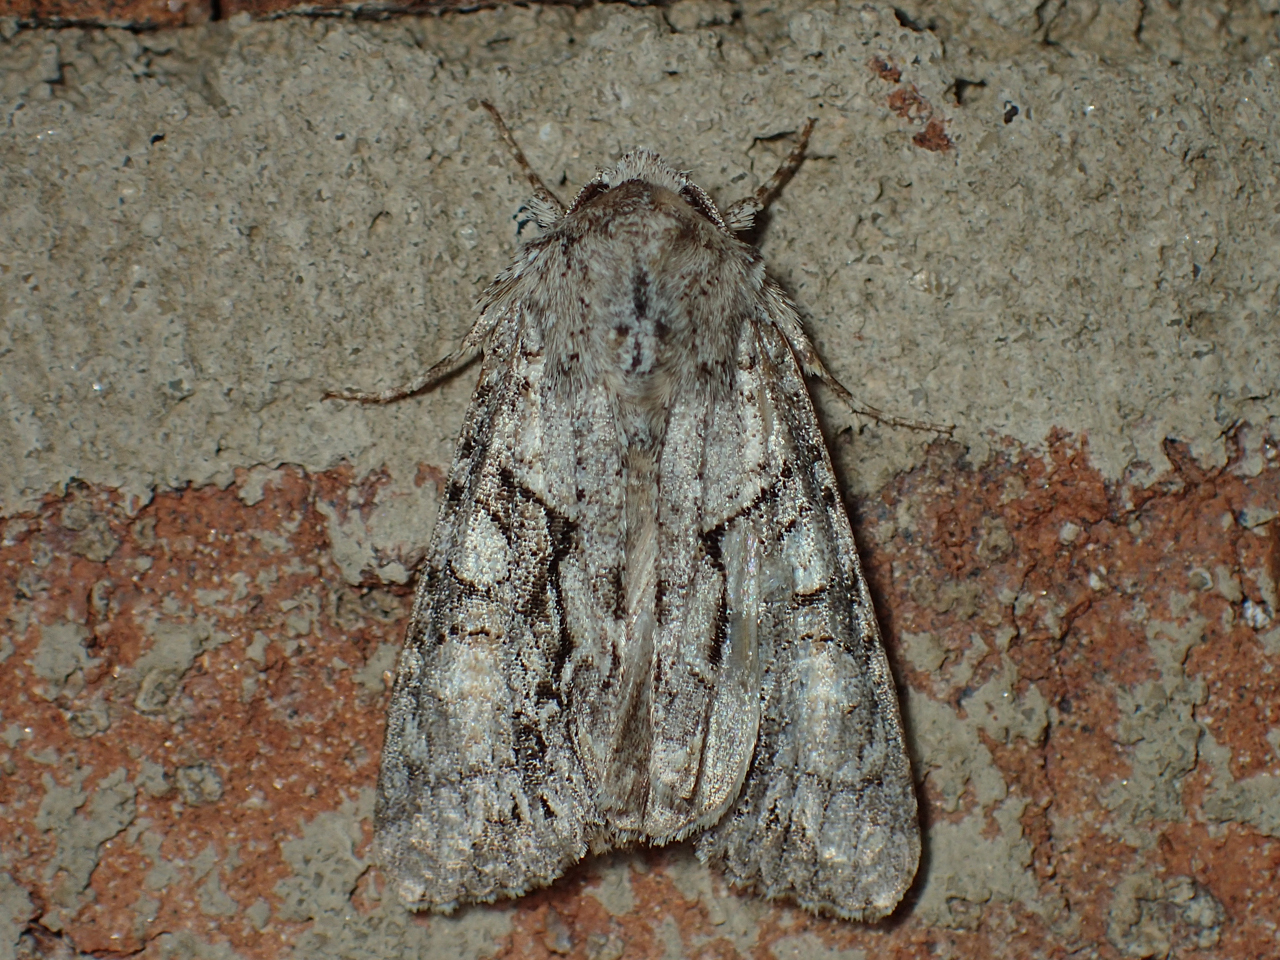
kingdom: Animalia
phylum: Arthropoda
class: Insecta
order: Lepidoptera
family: Noctuidae
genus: Achatia
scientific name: Achatia distincta
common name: Distinct quaker
